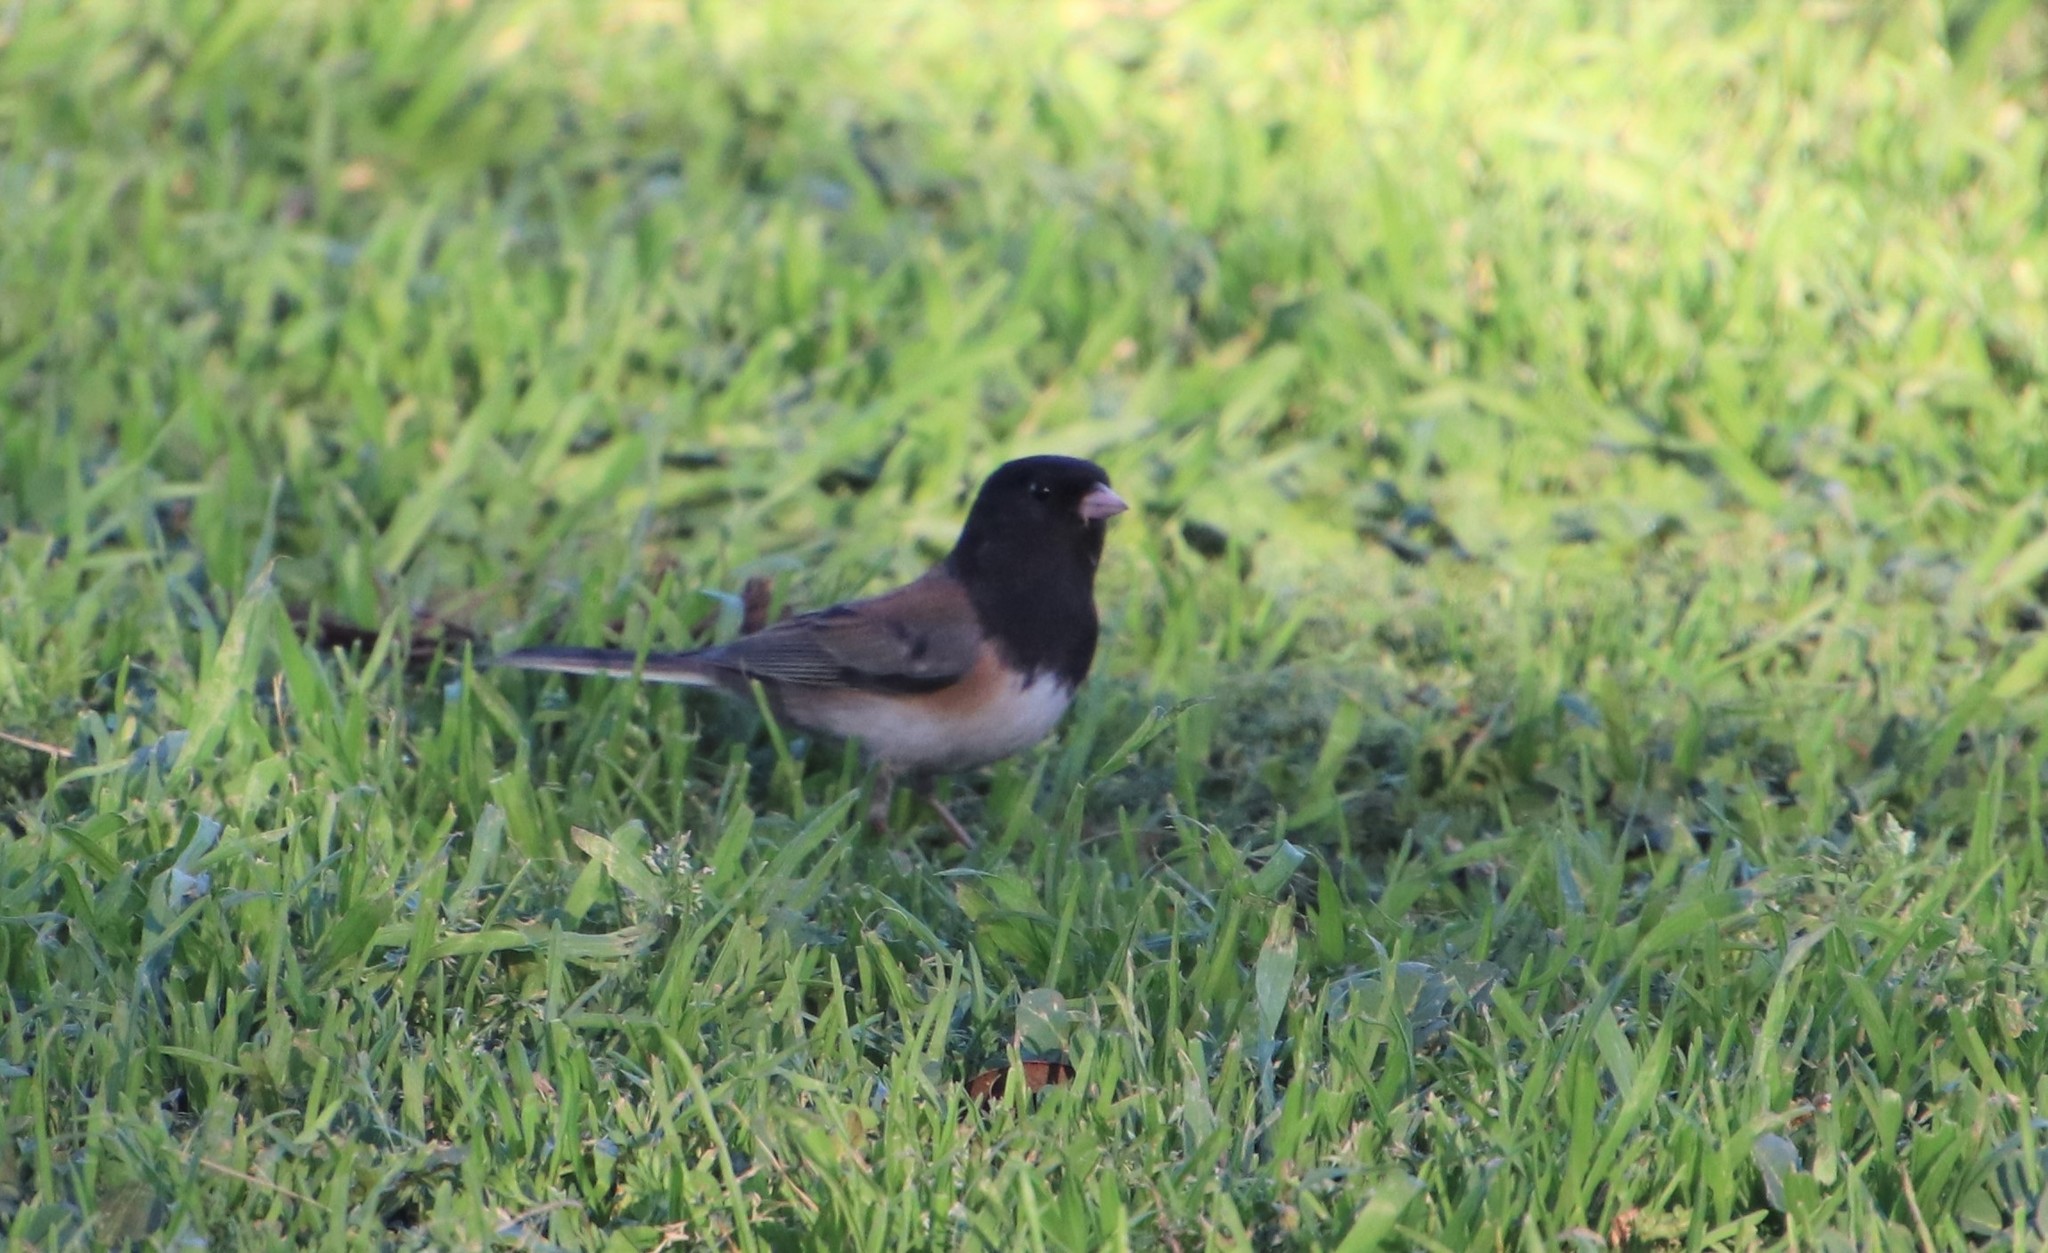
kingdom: Animalia
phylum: Chordata
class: Aves
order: Passeriformes
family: Passerellidae
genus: Junco
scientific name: Junco hyemalis
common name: Dark-eyed junco
